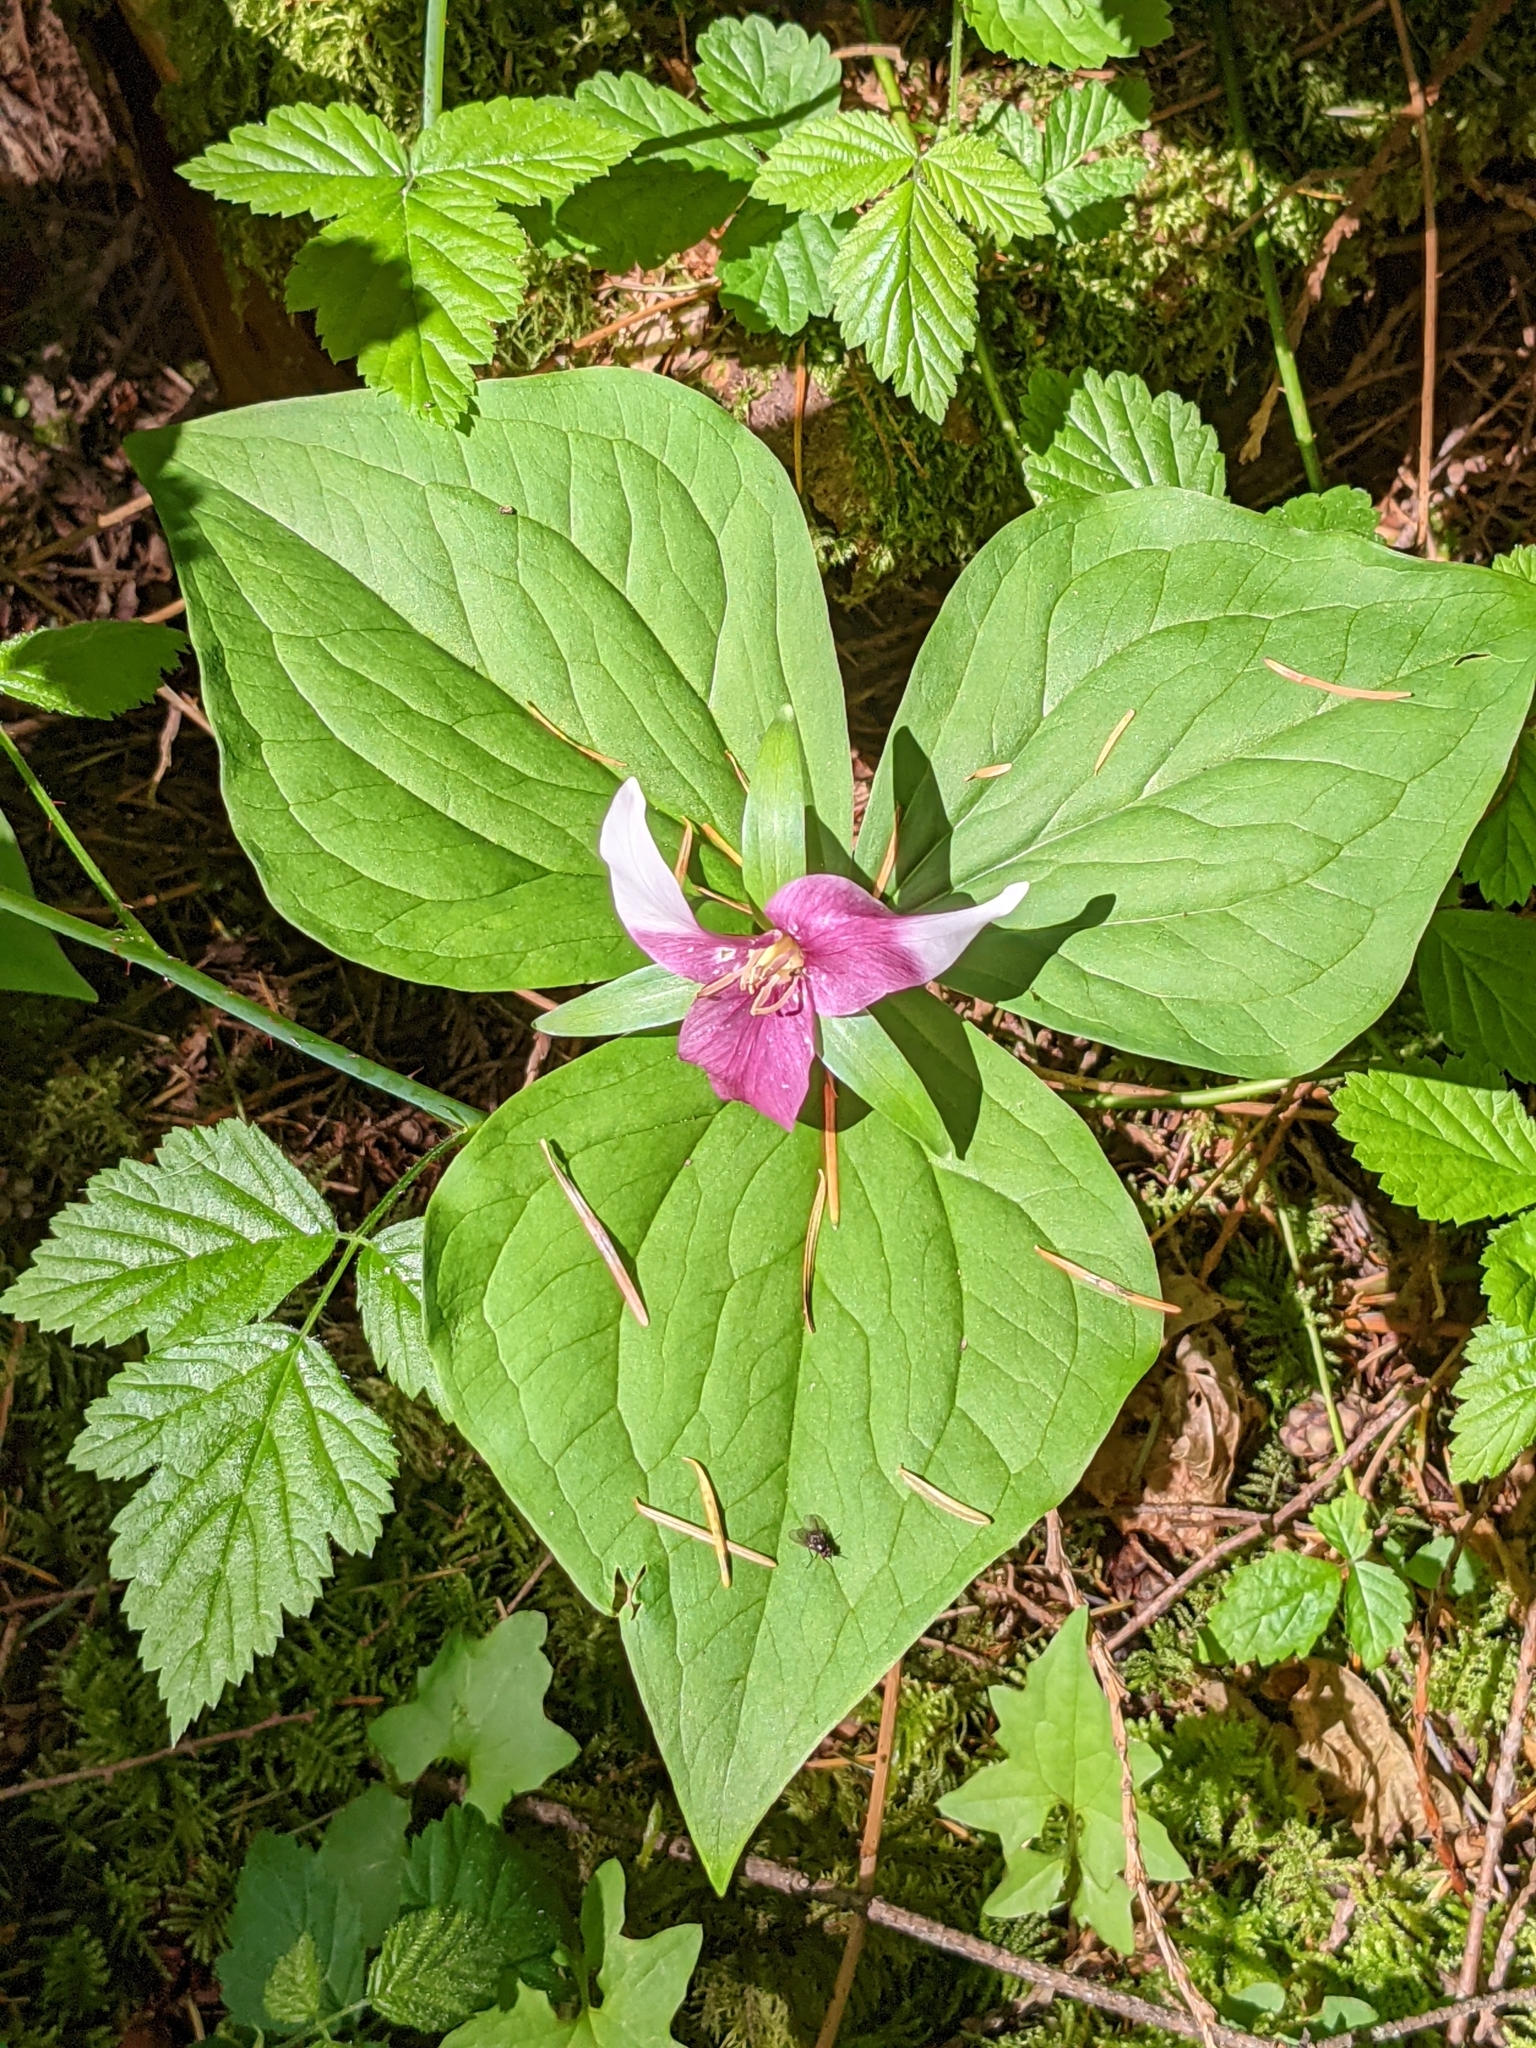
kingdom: Plantae
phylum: Tracheophyta
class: Liliopsida
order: Liliales
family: Melanthiaceae
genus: Trillium
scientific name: Trillium ovatum
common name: Pacific trillium
